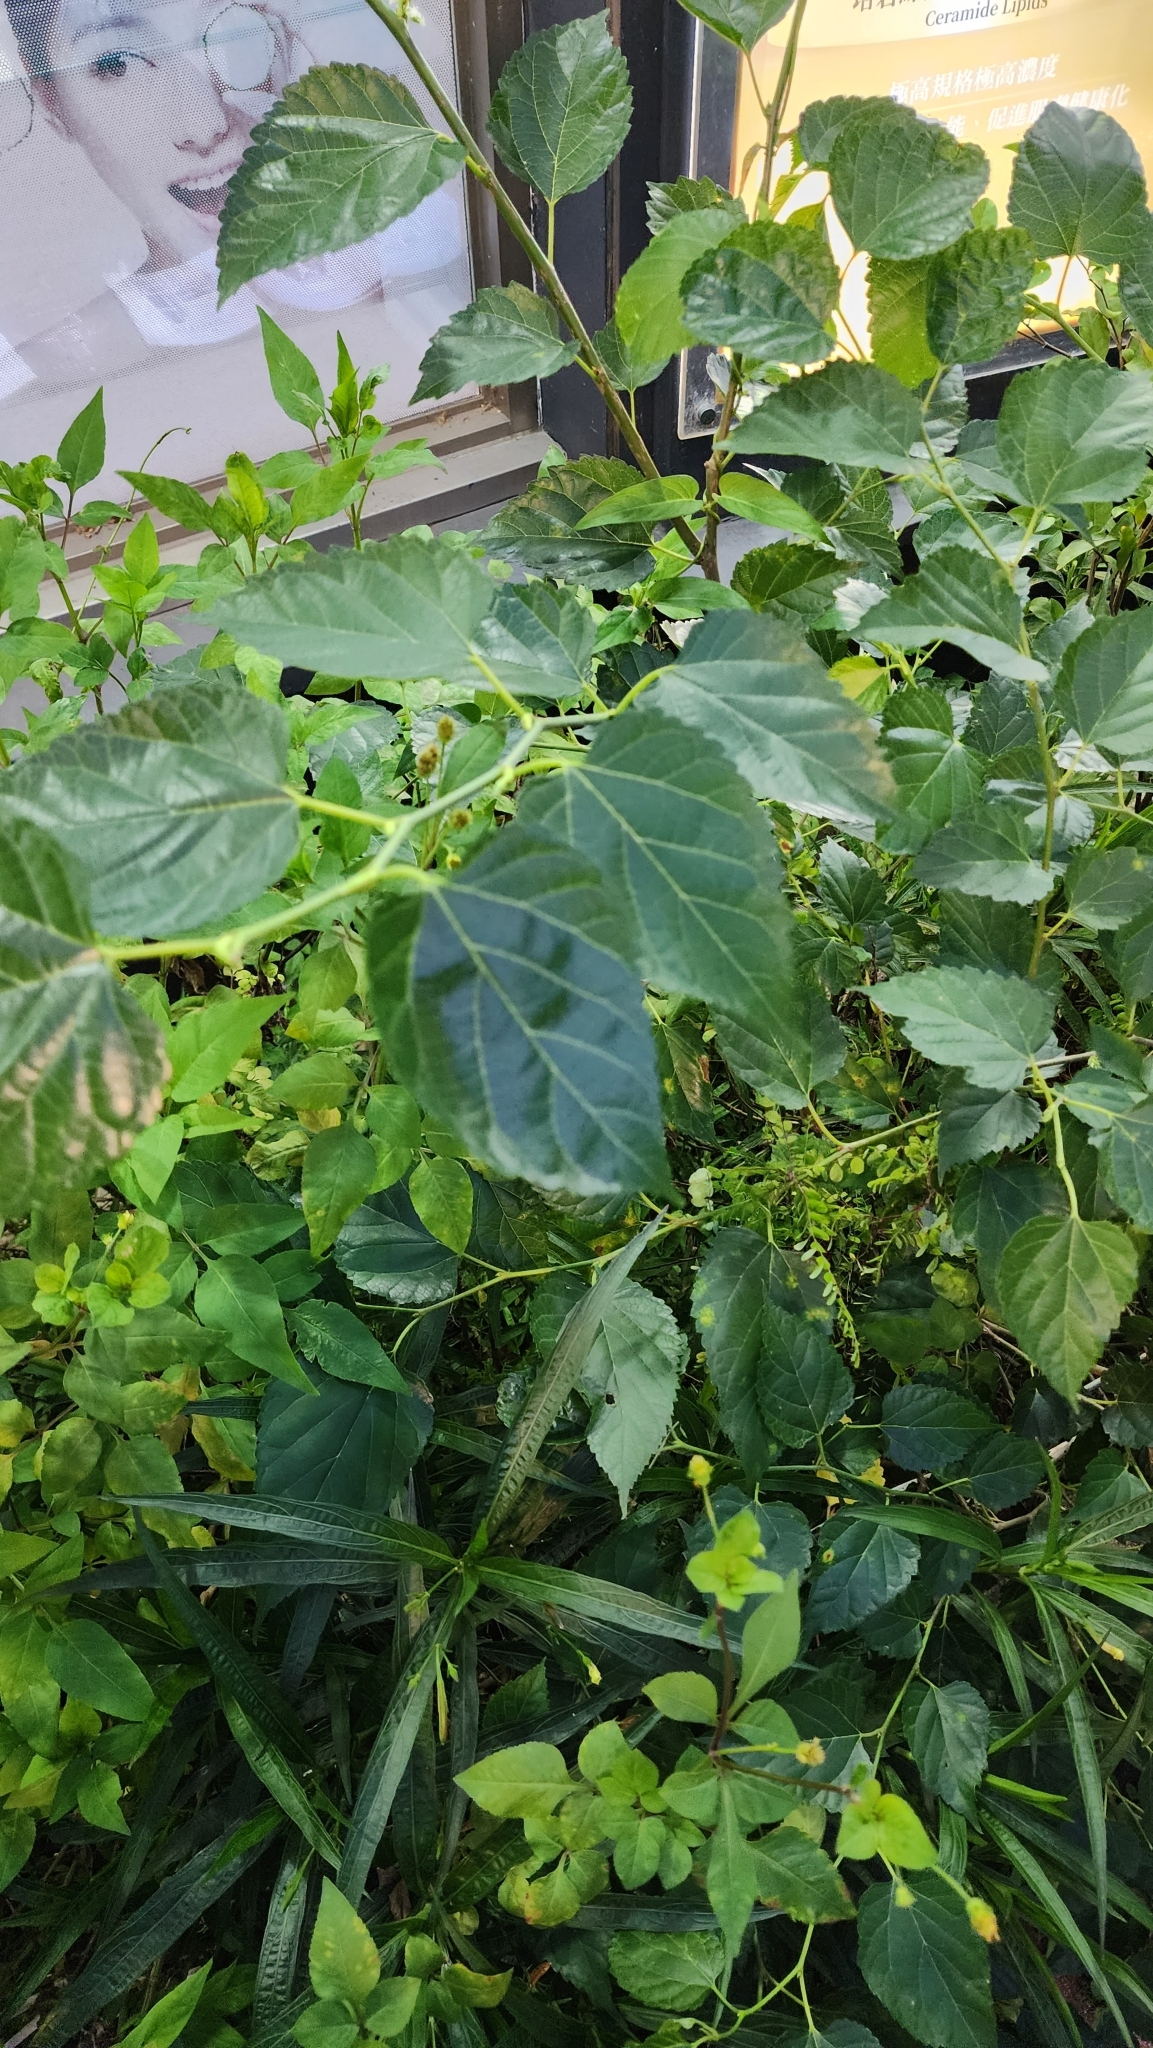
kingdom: Plantae
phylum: Tracheophyta
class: Magnoliopsida
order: Rosales
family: Moraceae
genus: Morus
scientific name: Morus indica
